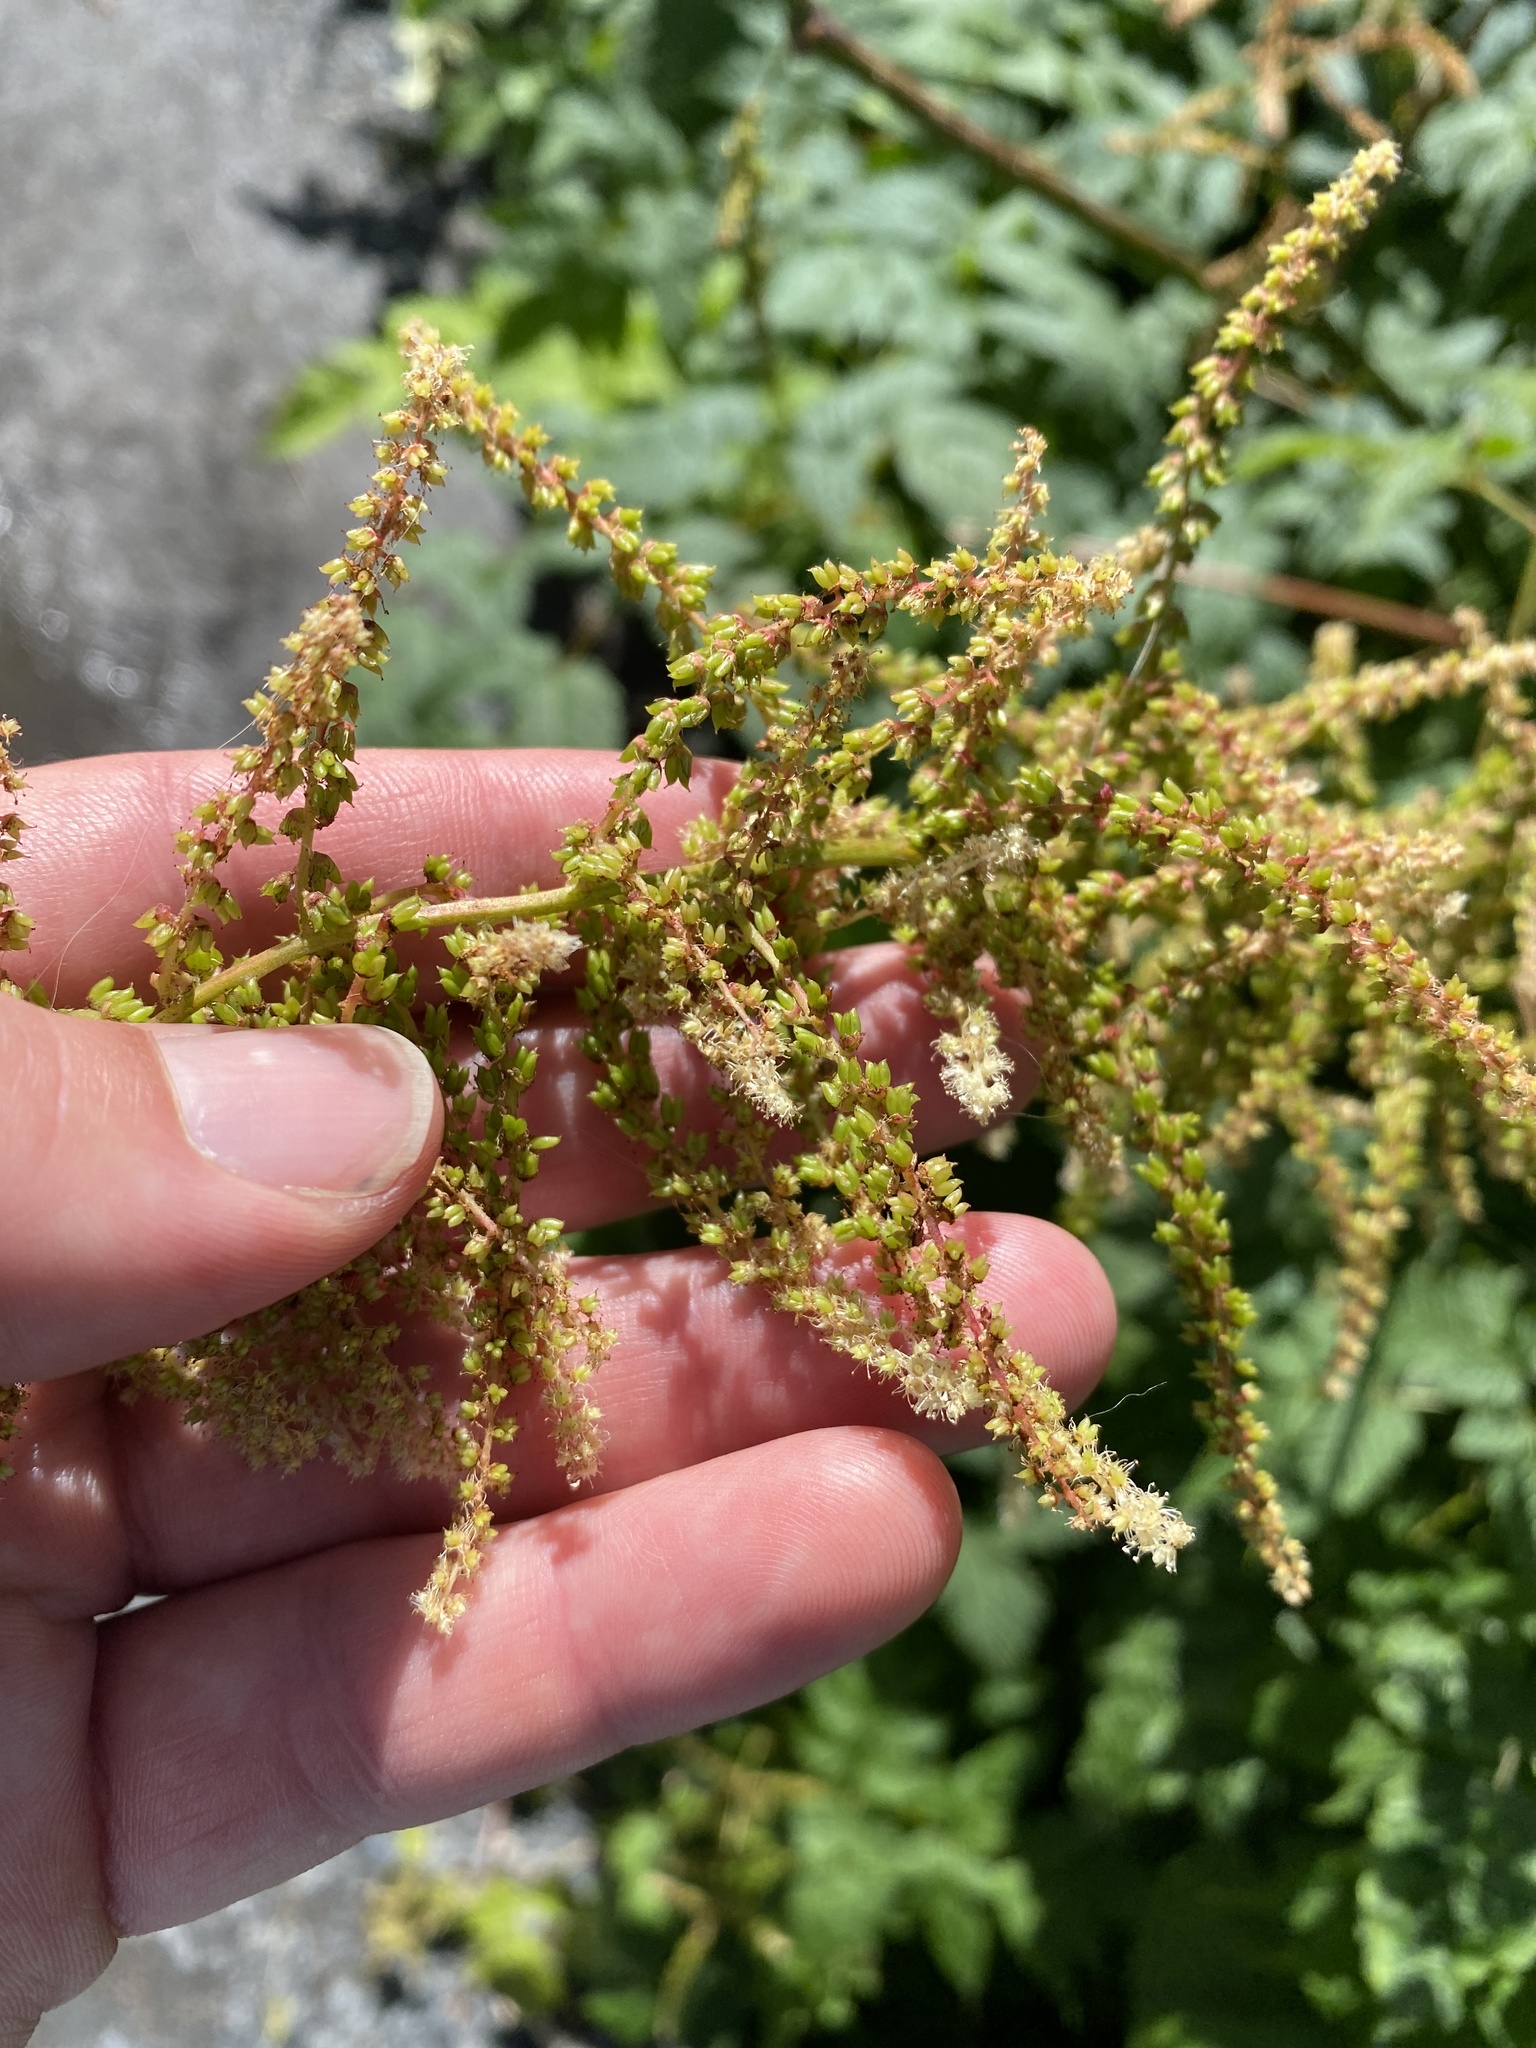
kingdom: Plantae
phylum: Tracheophyta
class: Magnoliopsida
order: Rosales
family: Rosaceae
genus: Aruncus
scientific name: Aruncus dioicus
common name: Buck's-beard
